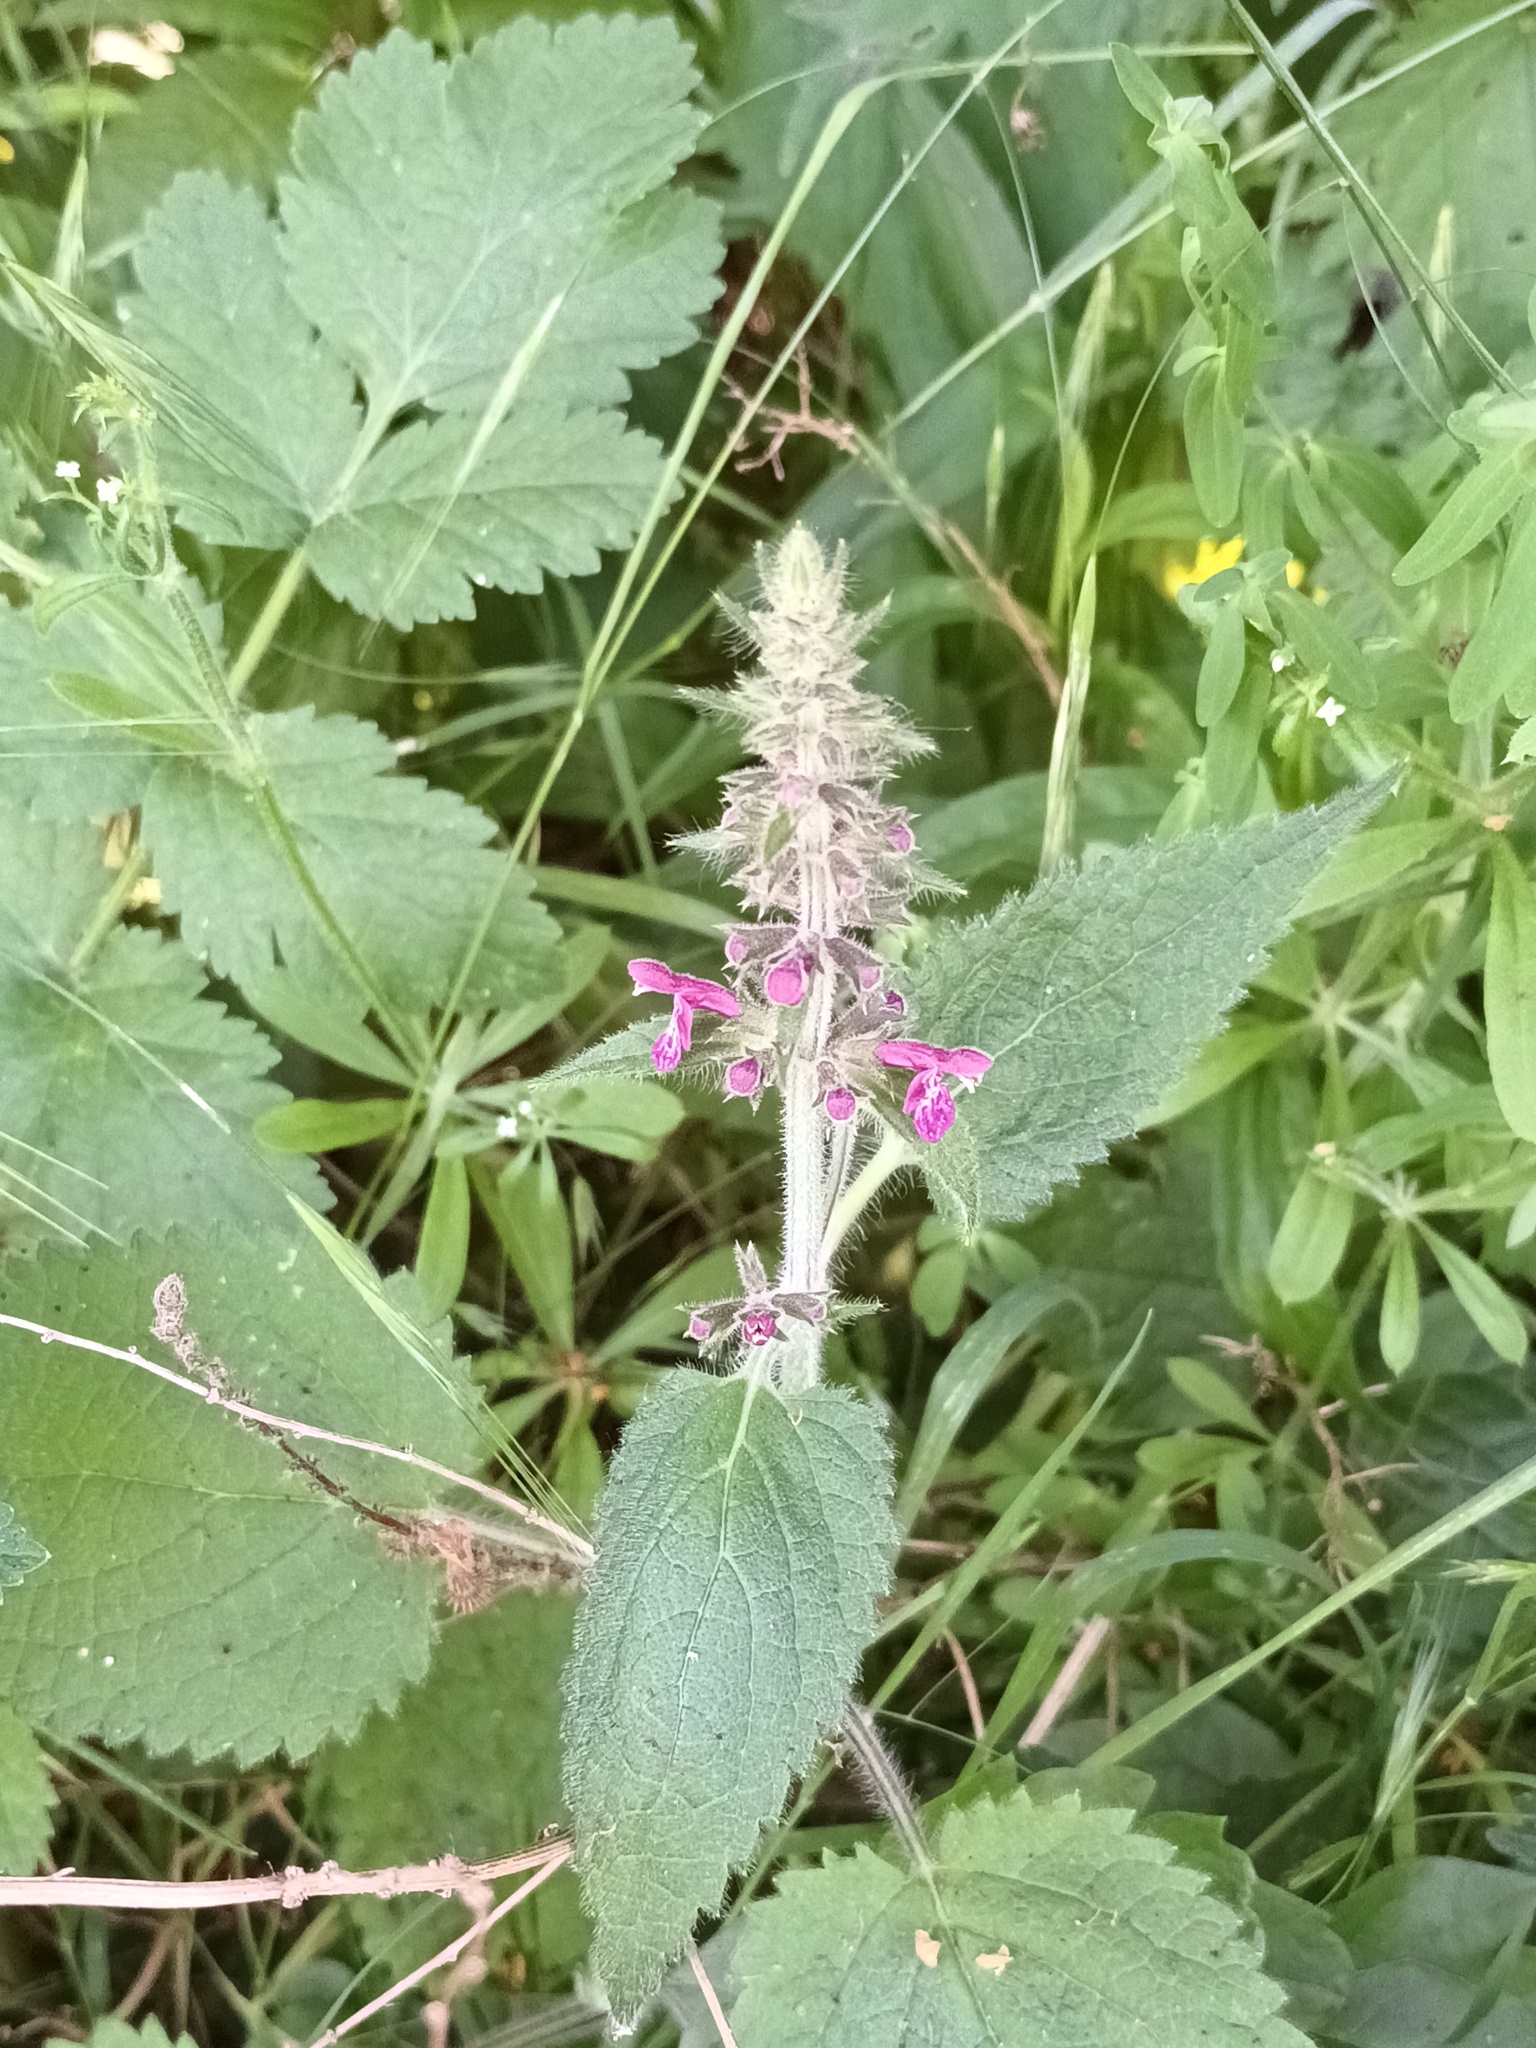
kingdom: Plantae
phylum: Tracheophyta
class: Magnoliopsida
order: Lamiales
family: Lamiaceae
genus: Stachys
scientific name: Stachys sylvatica
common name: Hedge woundwort
